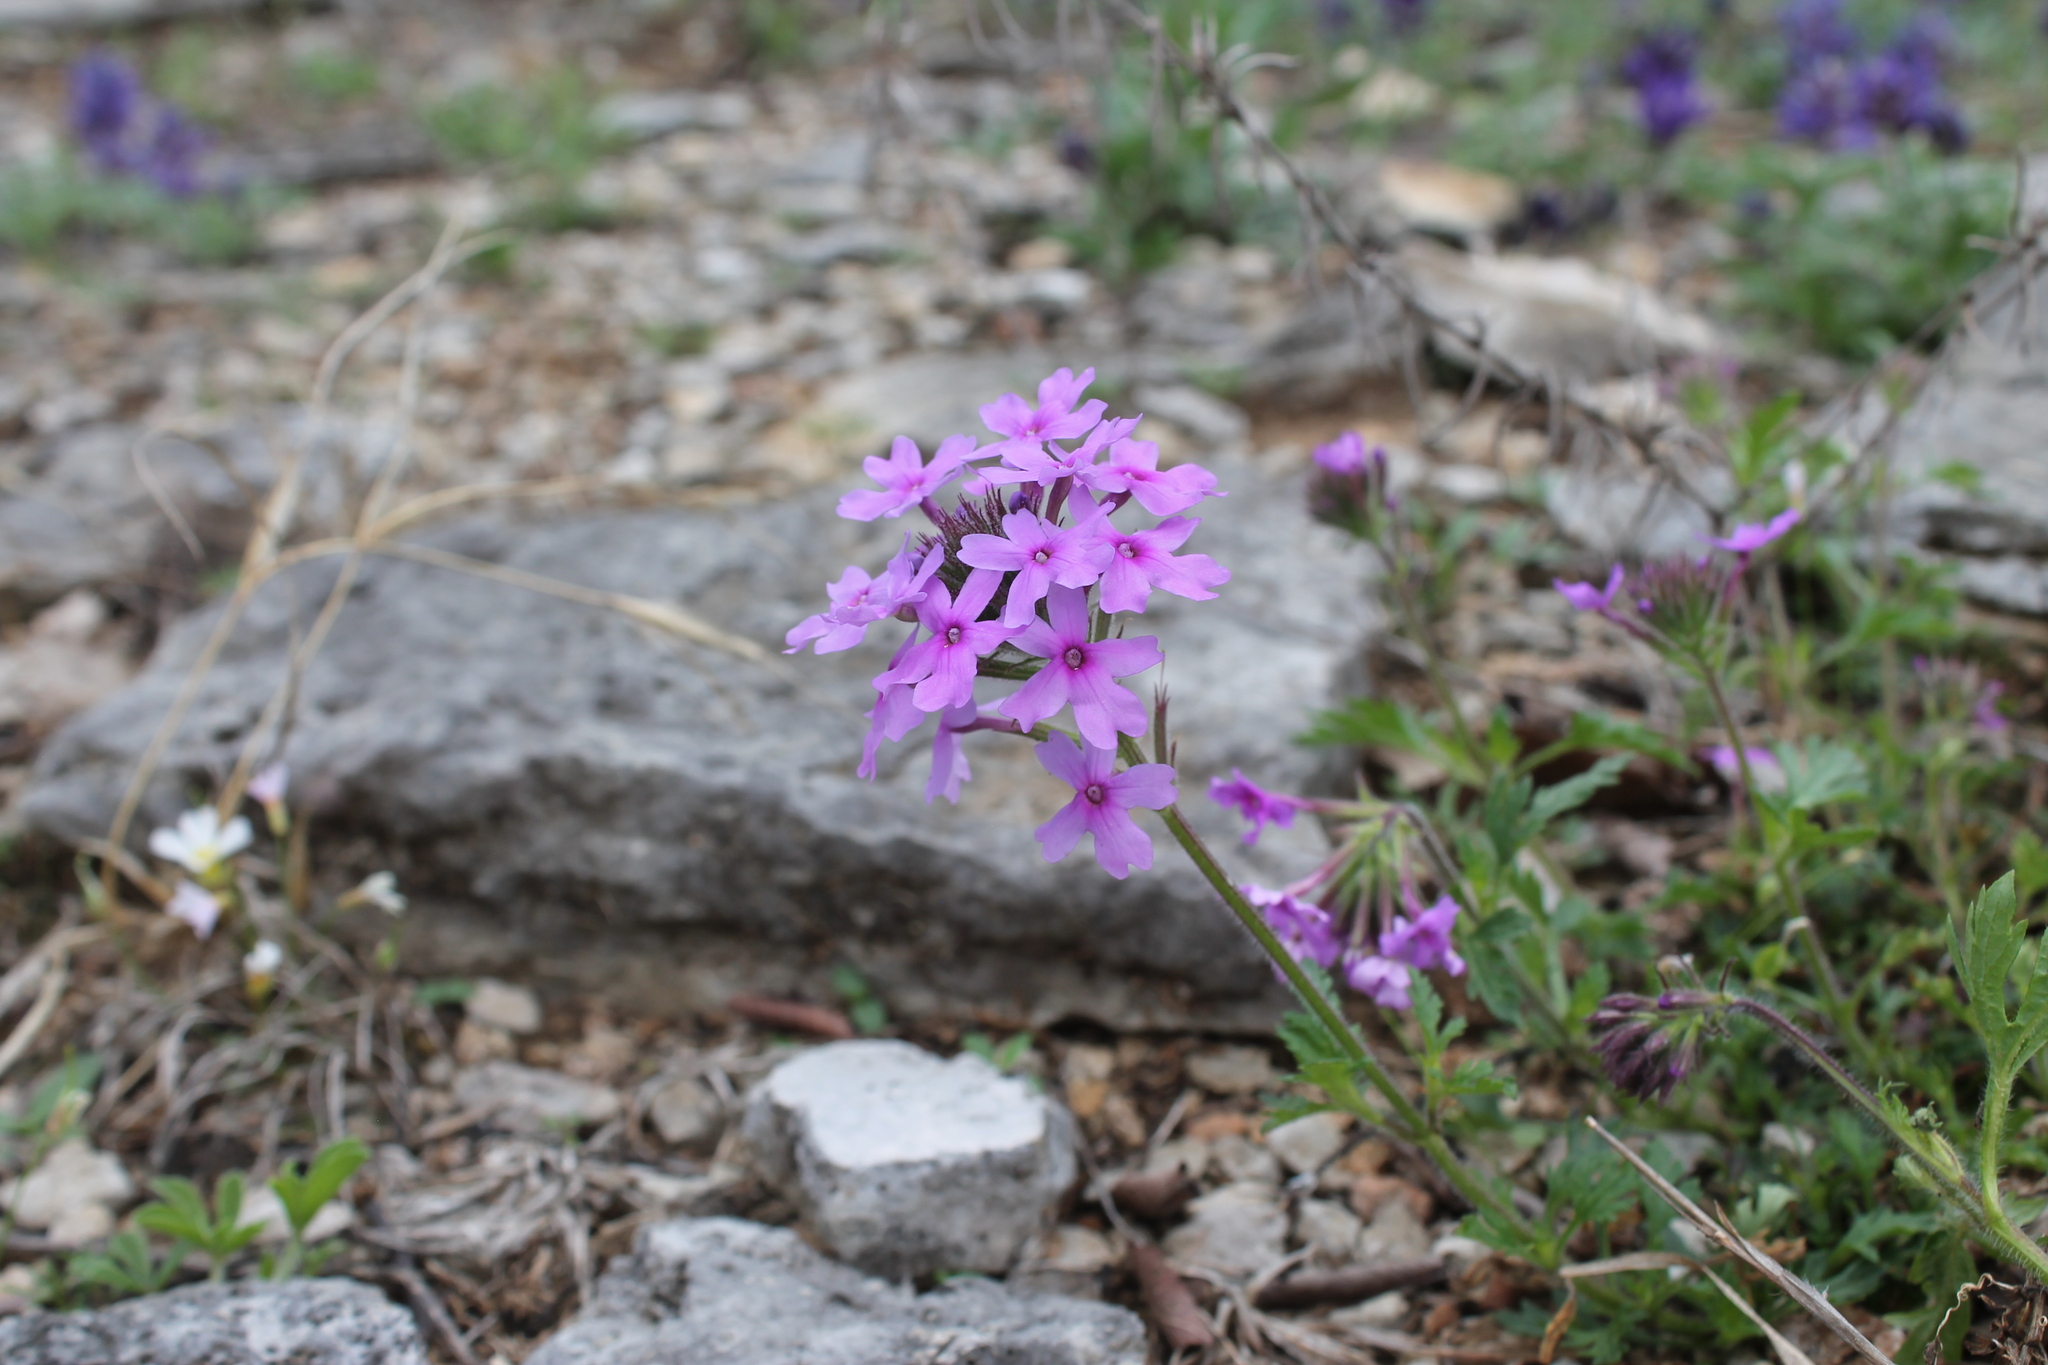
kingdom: Plantae
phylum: Tracheophyta
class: Magnoliopsida
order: Lamiales
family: Verbenaceae
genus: Verbena
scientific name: Verbena canadensis
